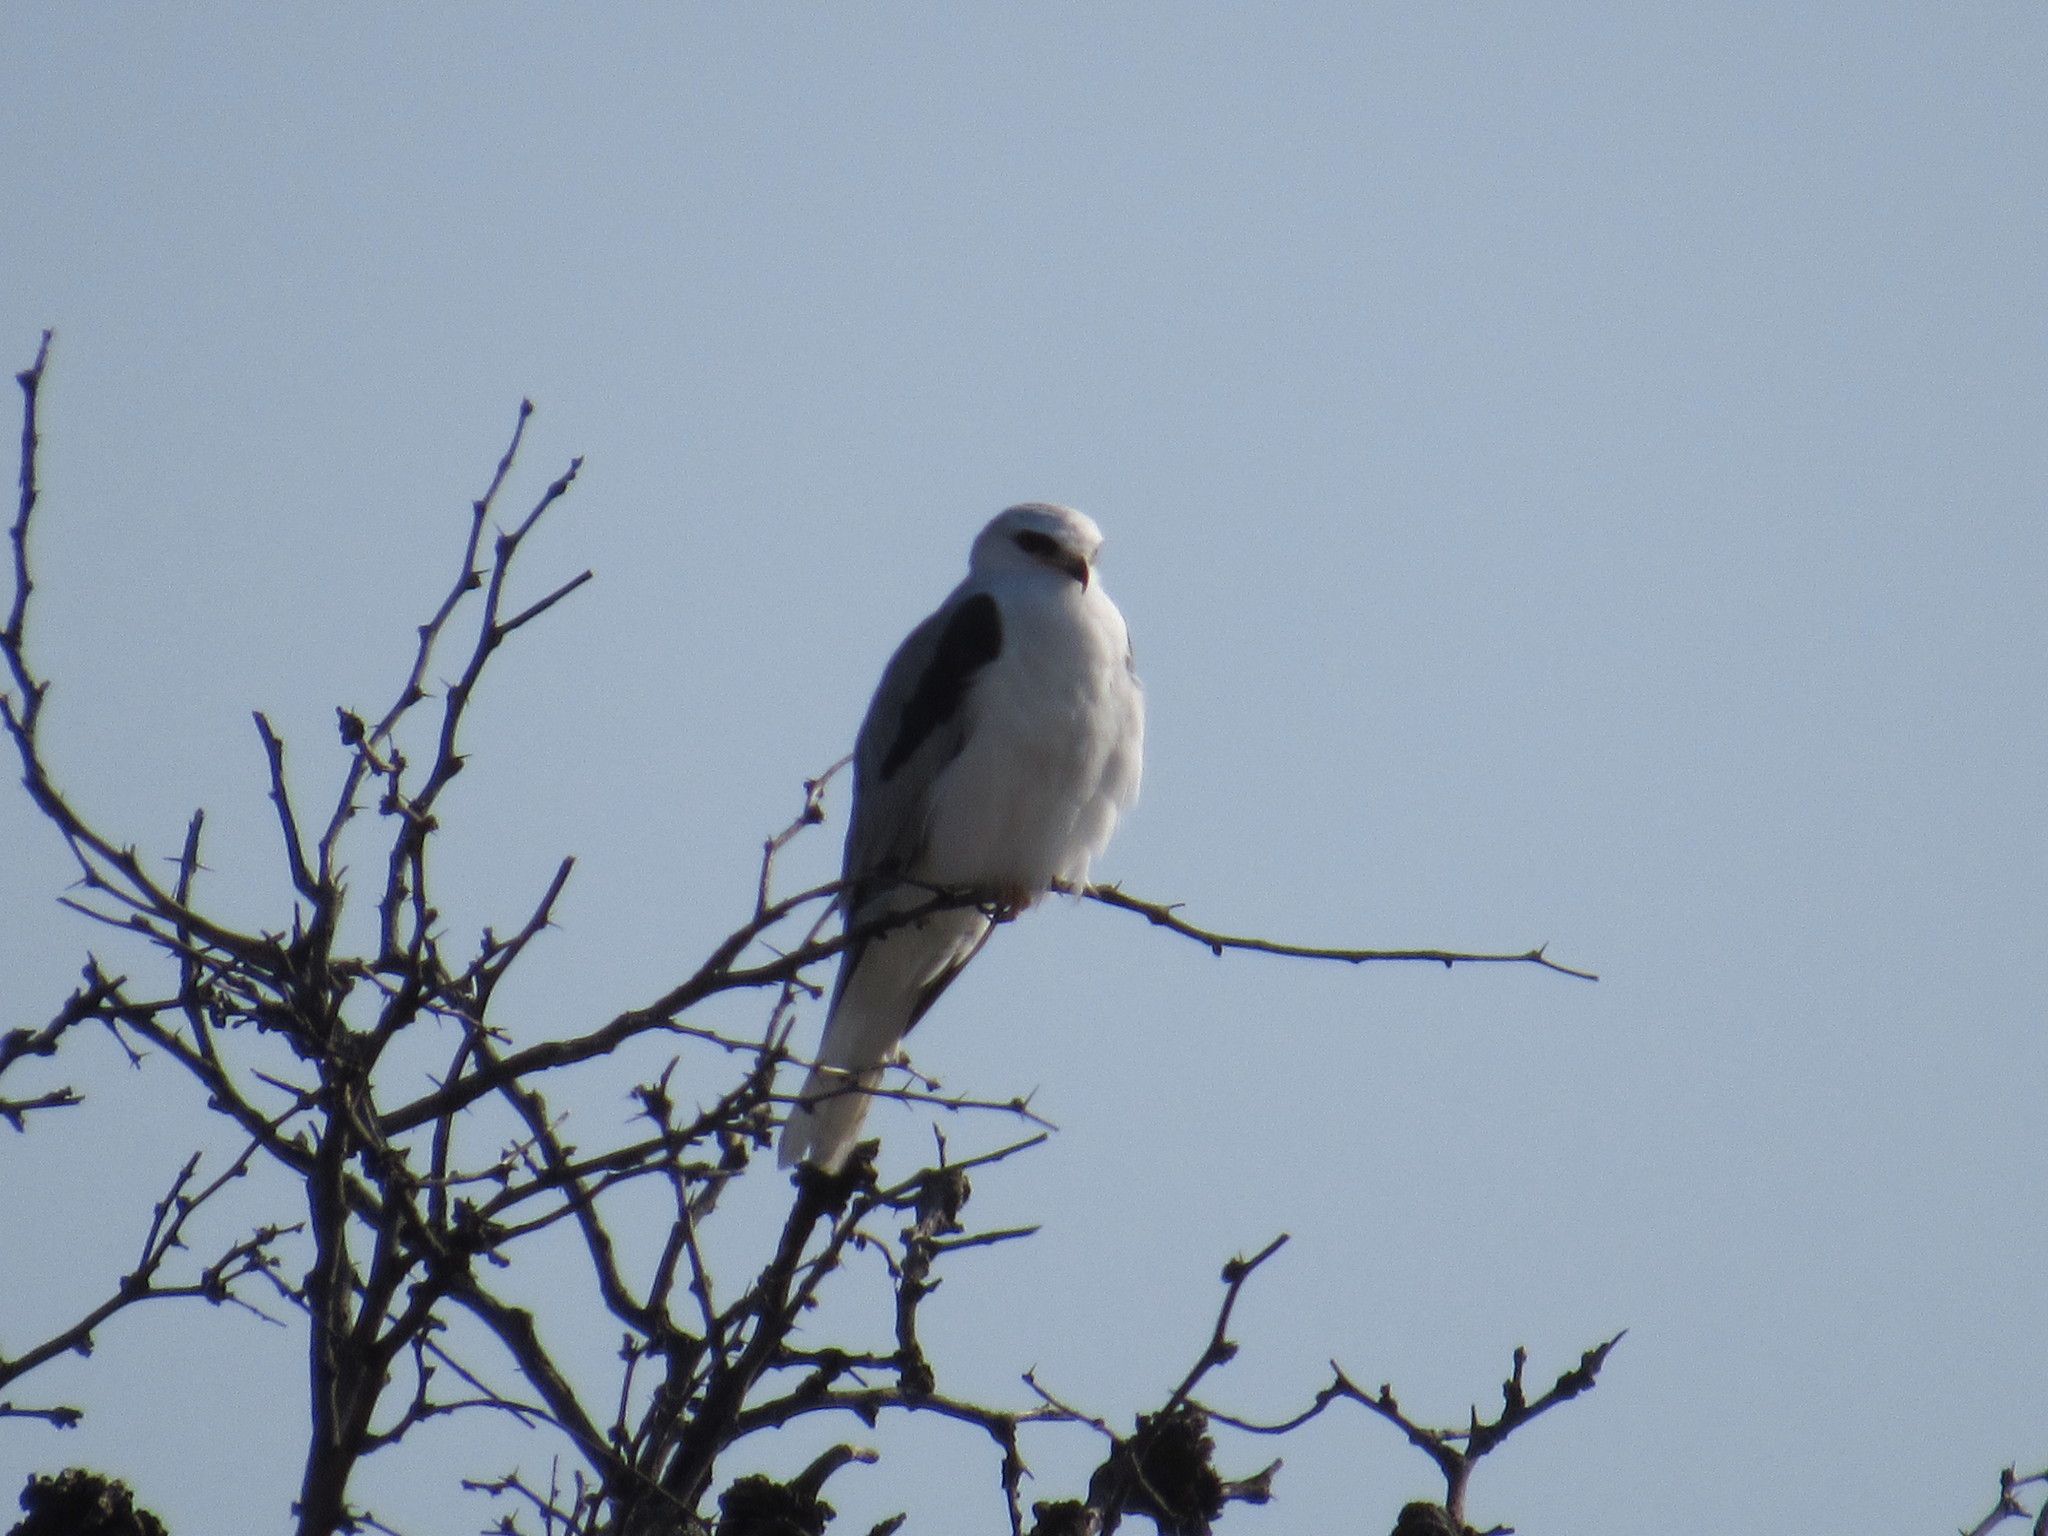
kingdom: Animalia
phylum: Chordata
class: Aves
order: Accipitriformes
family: Accipitridae
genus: Elanus
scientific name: Elanus leucurus
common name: White-tailed kite
